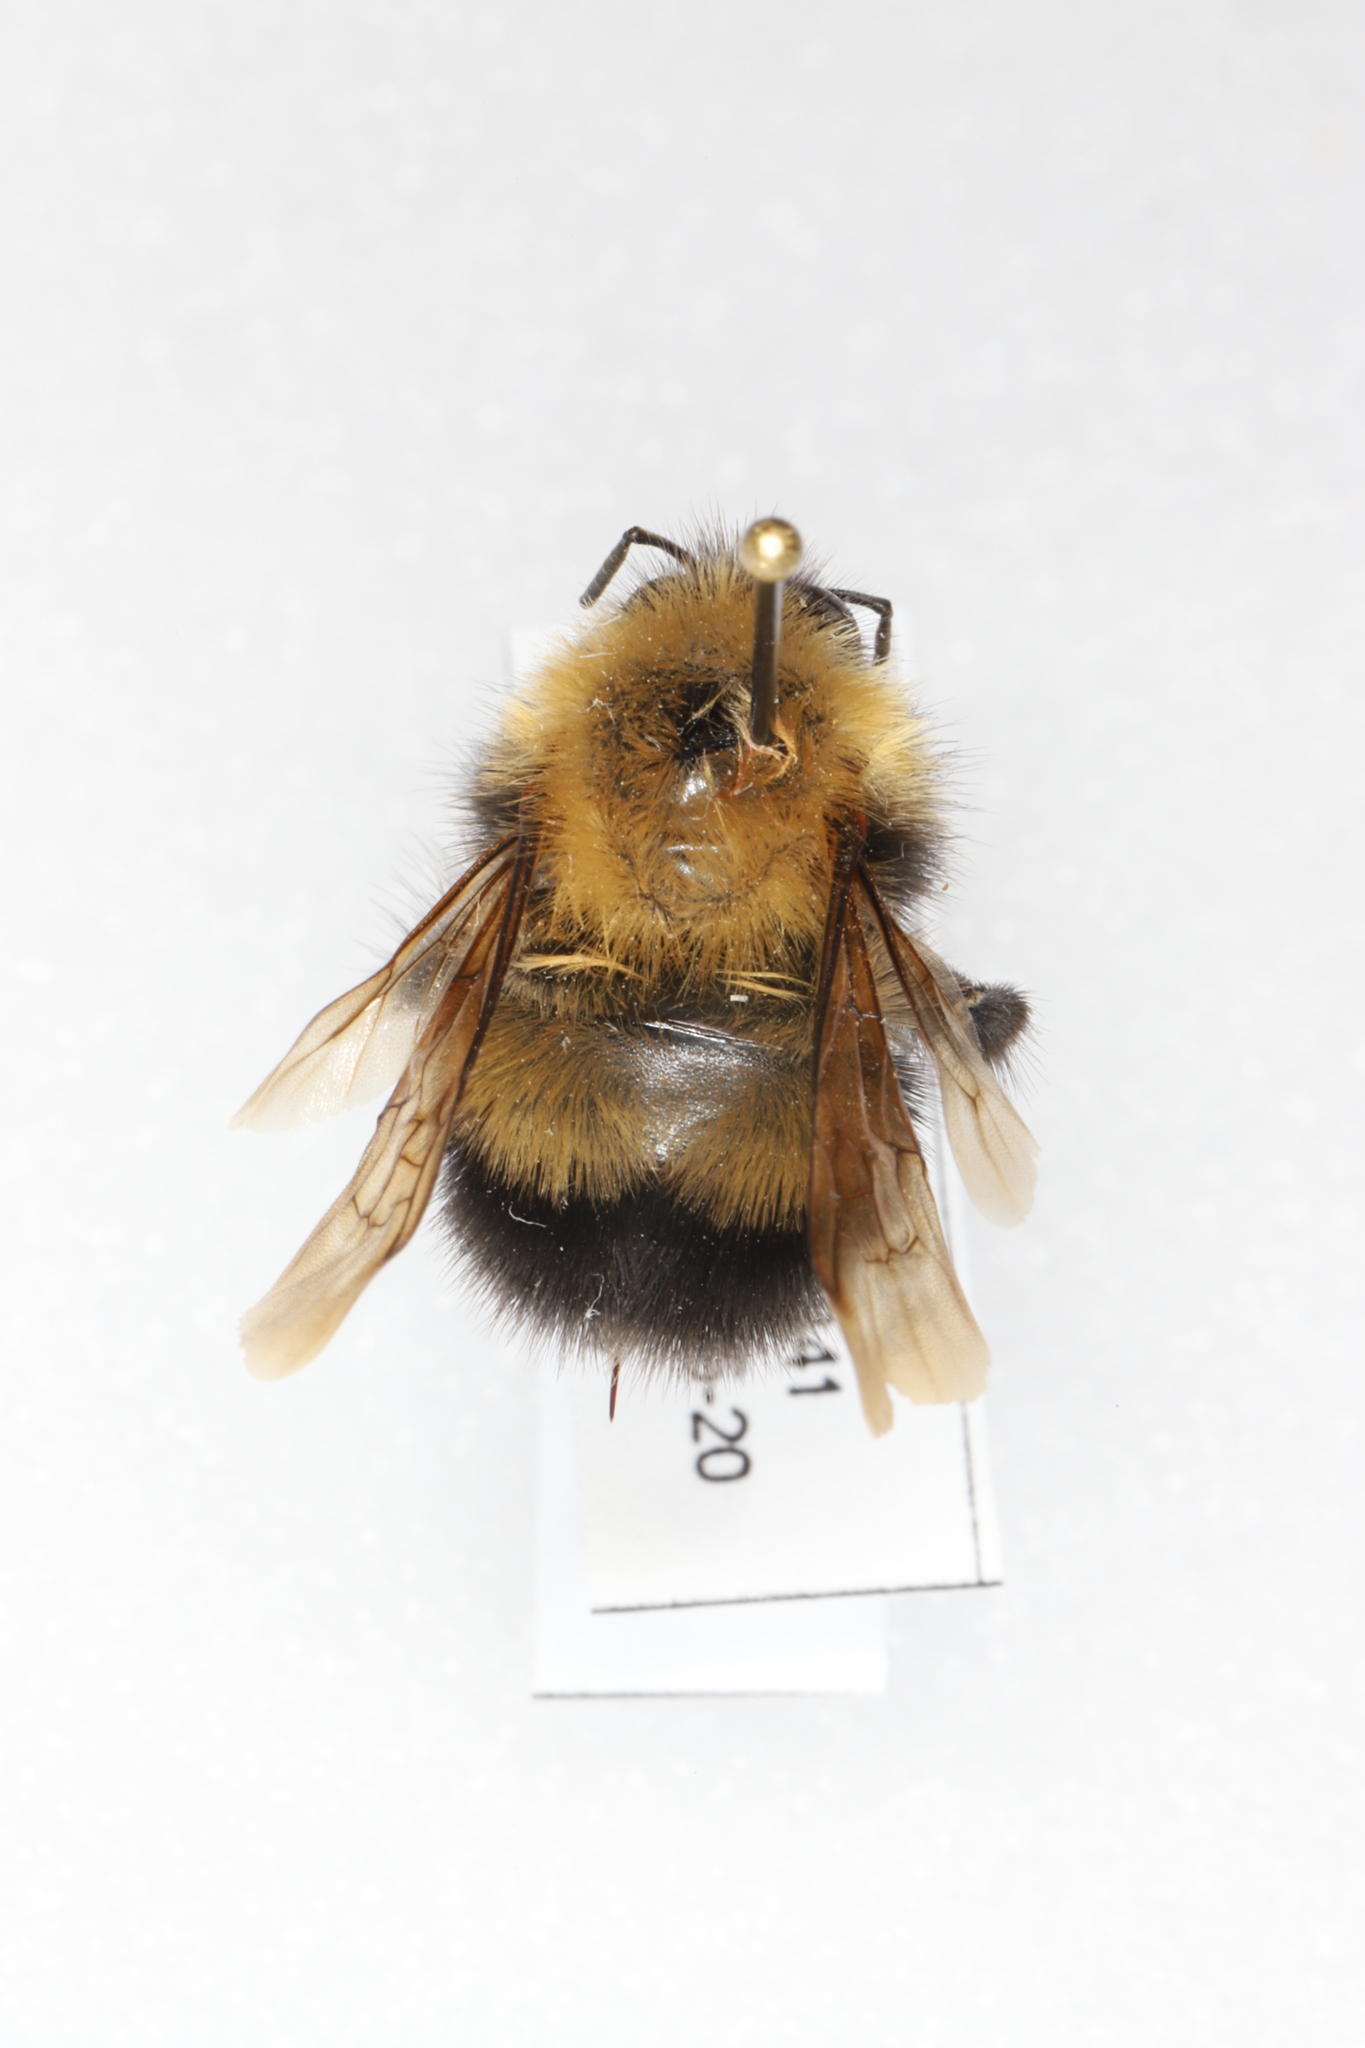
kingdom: Animalia
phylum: Arthropoda
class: Insecta
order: Hymenoptera
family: Apidae
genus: Bombus
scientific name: Bombus perplexus
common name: Confusing bumble bee
